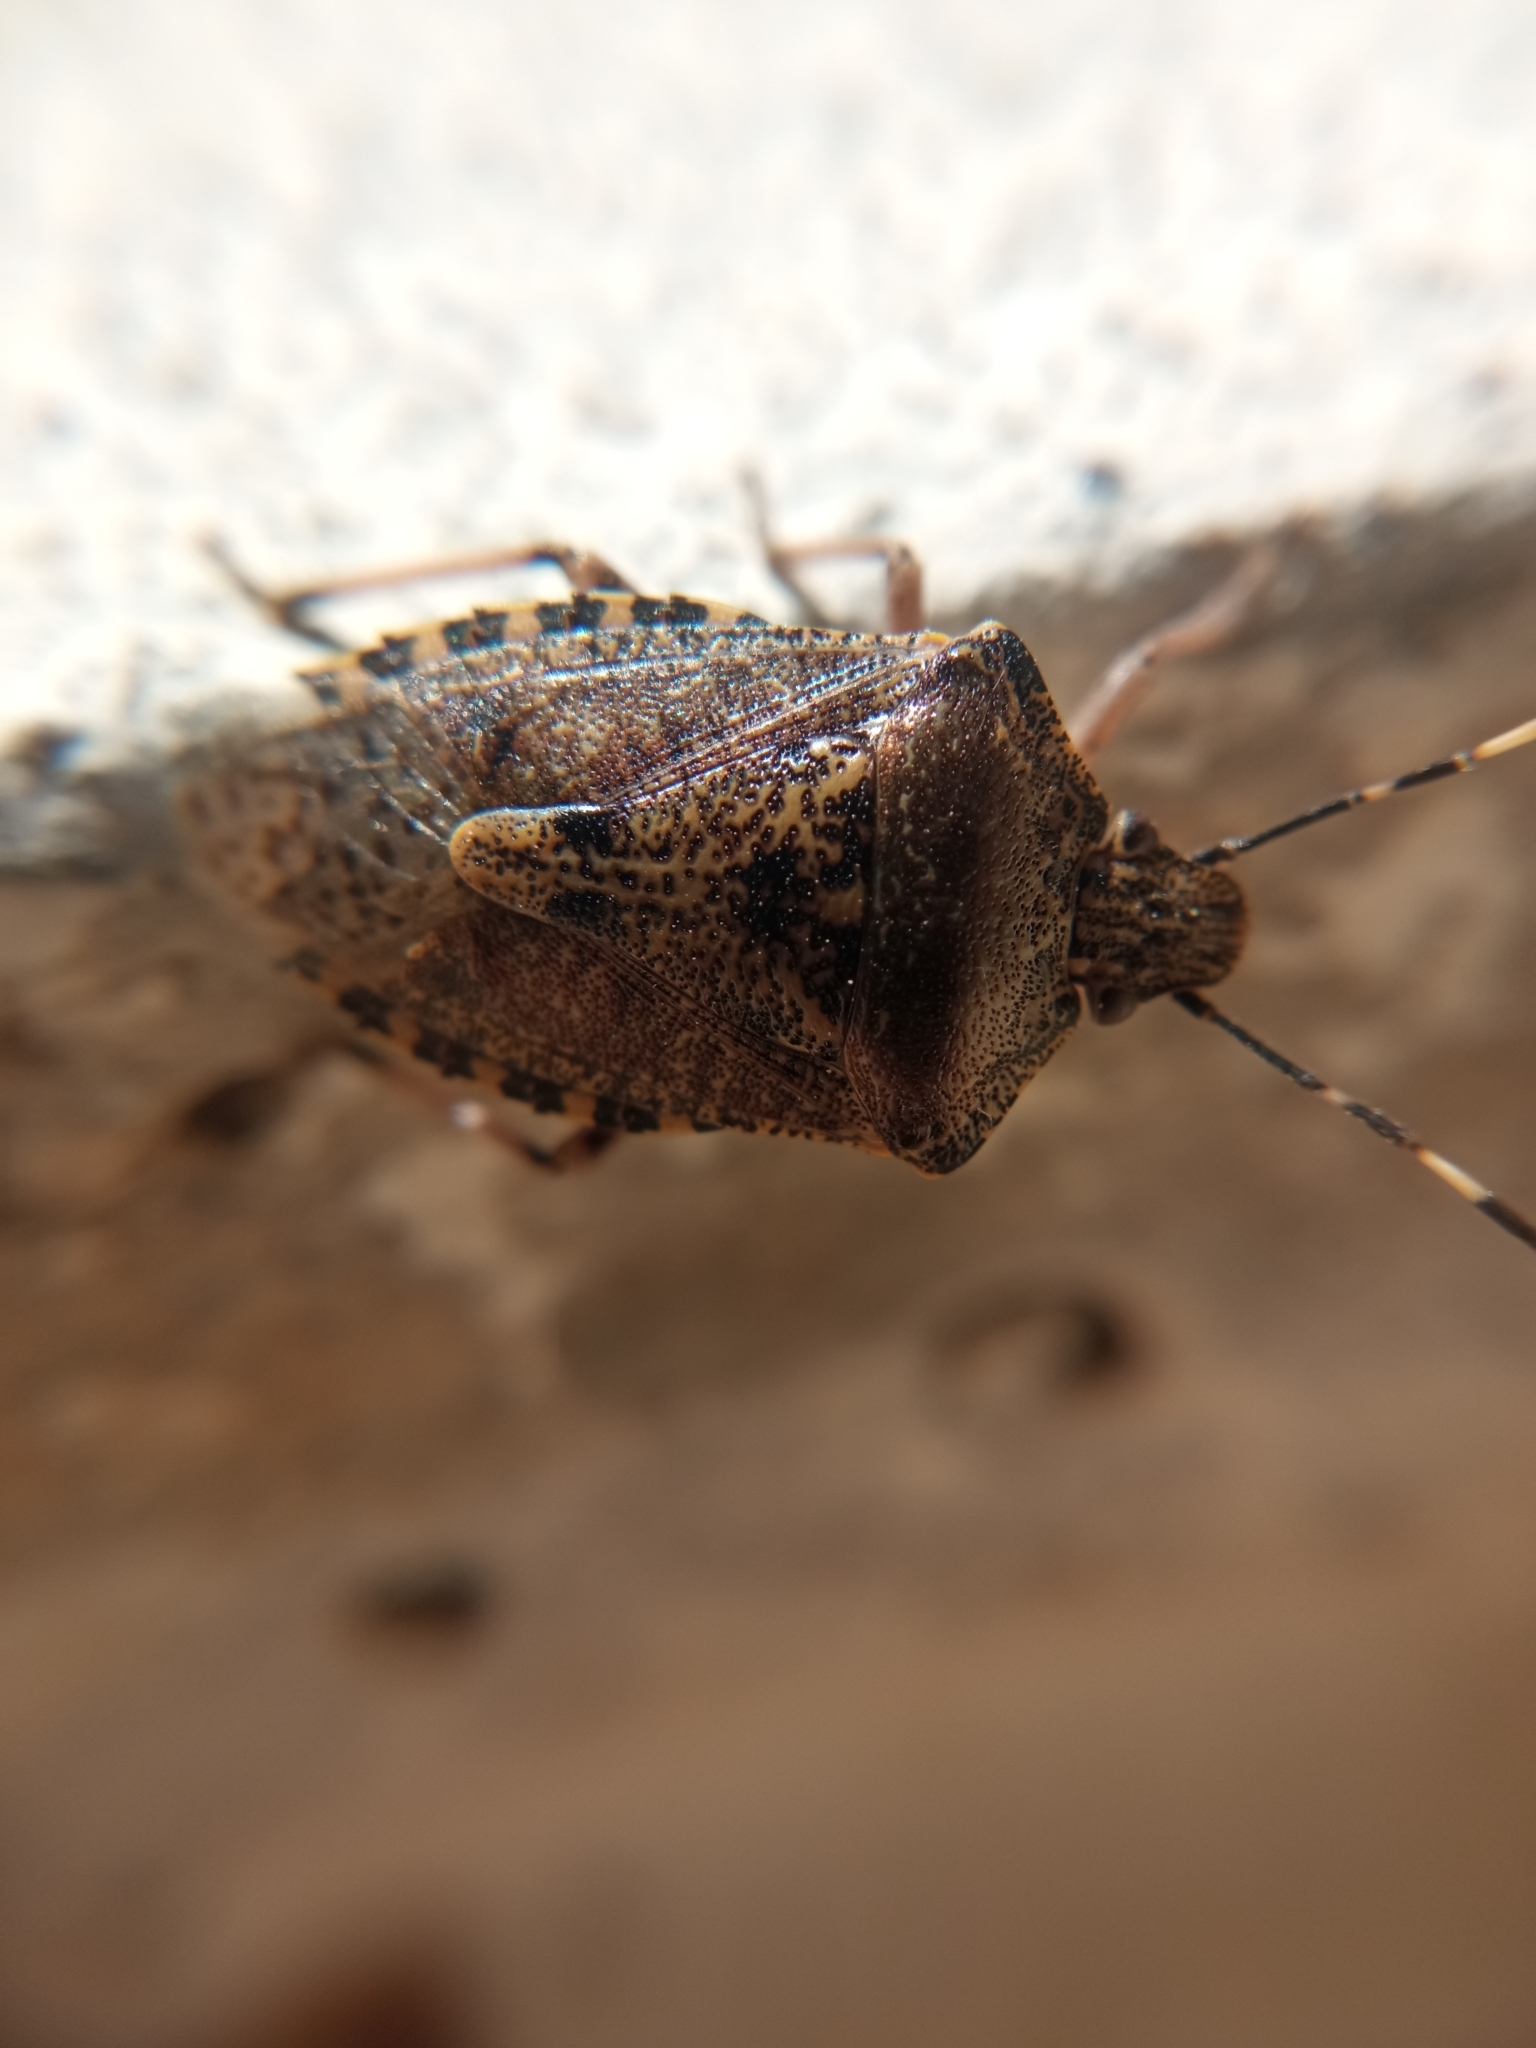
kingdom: Animalia
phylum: Arthropoda
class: Insecta
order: Hemiptera
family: Pentatomidae
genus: Rhaphigaster
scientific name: Rhaphigaster nebulosa
